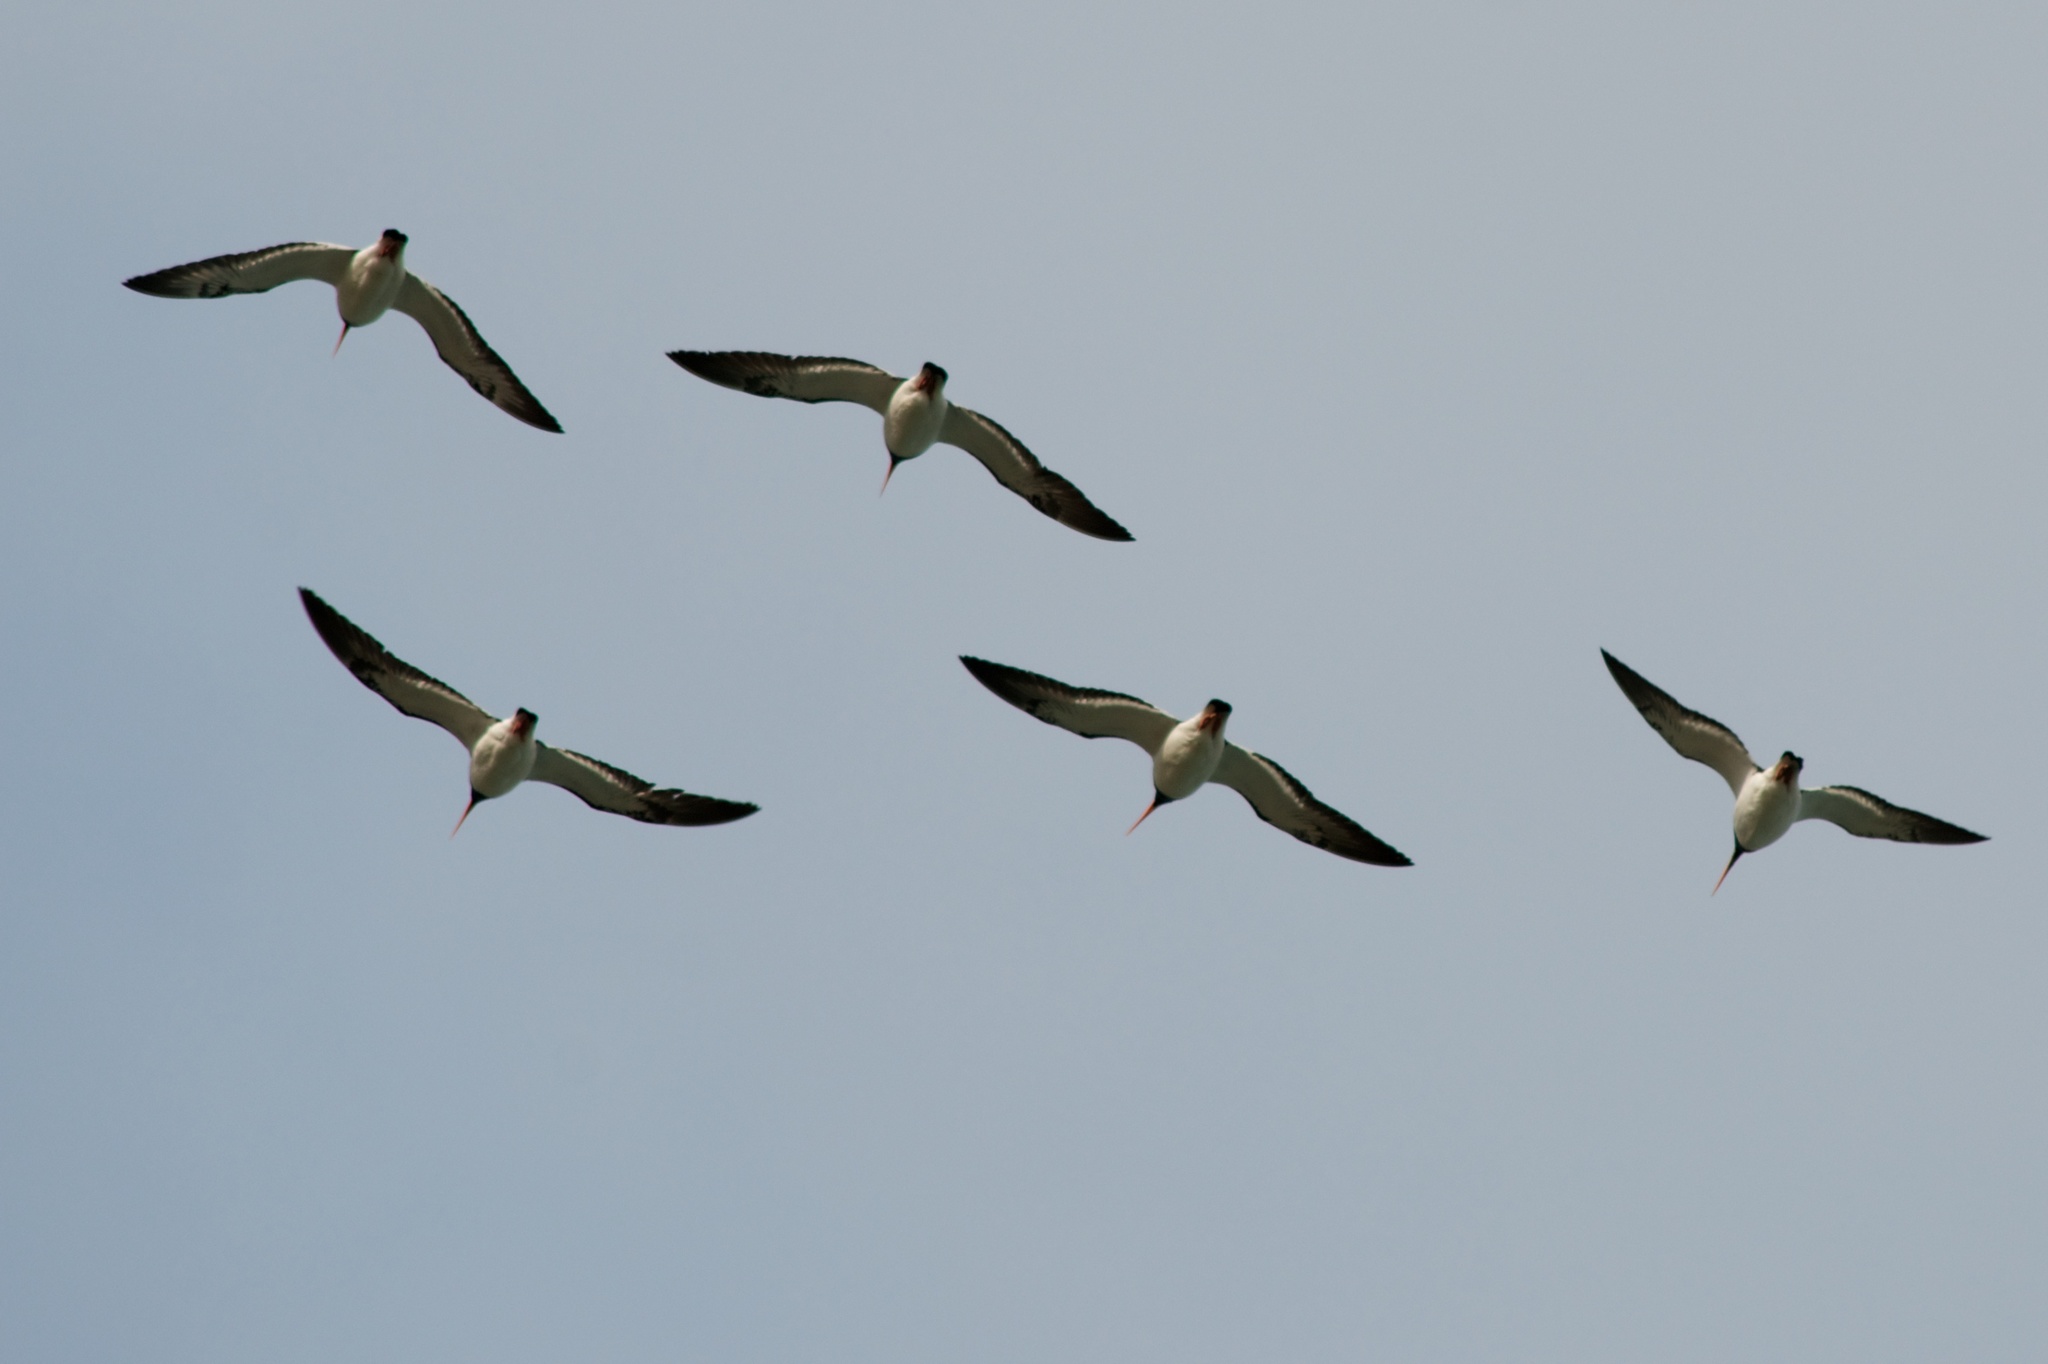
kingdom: Animalia
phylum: Chordata
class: Aves
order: Charadriiformes
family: Haematopodidae
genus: Haematopus
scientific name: Haematopus finschi
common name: South island oystercatcher
